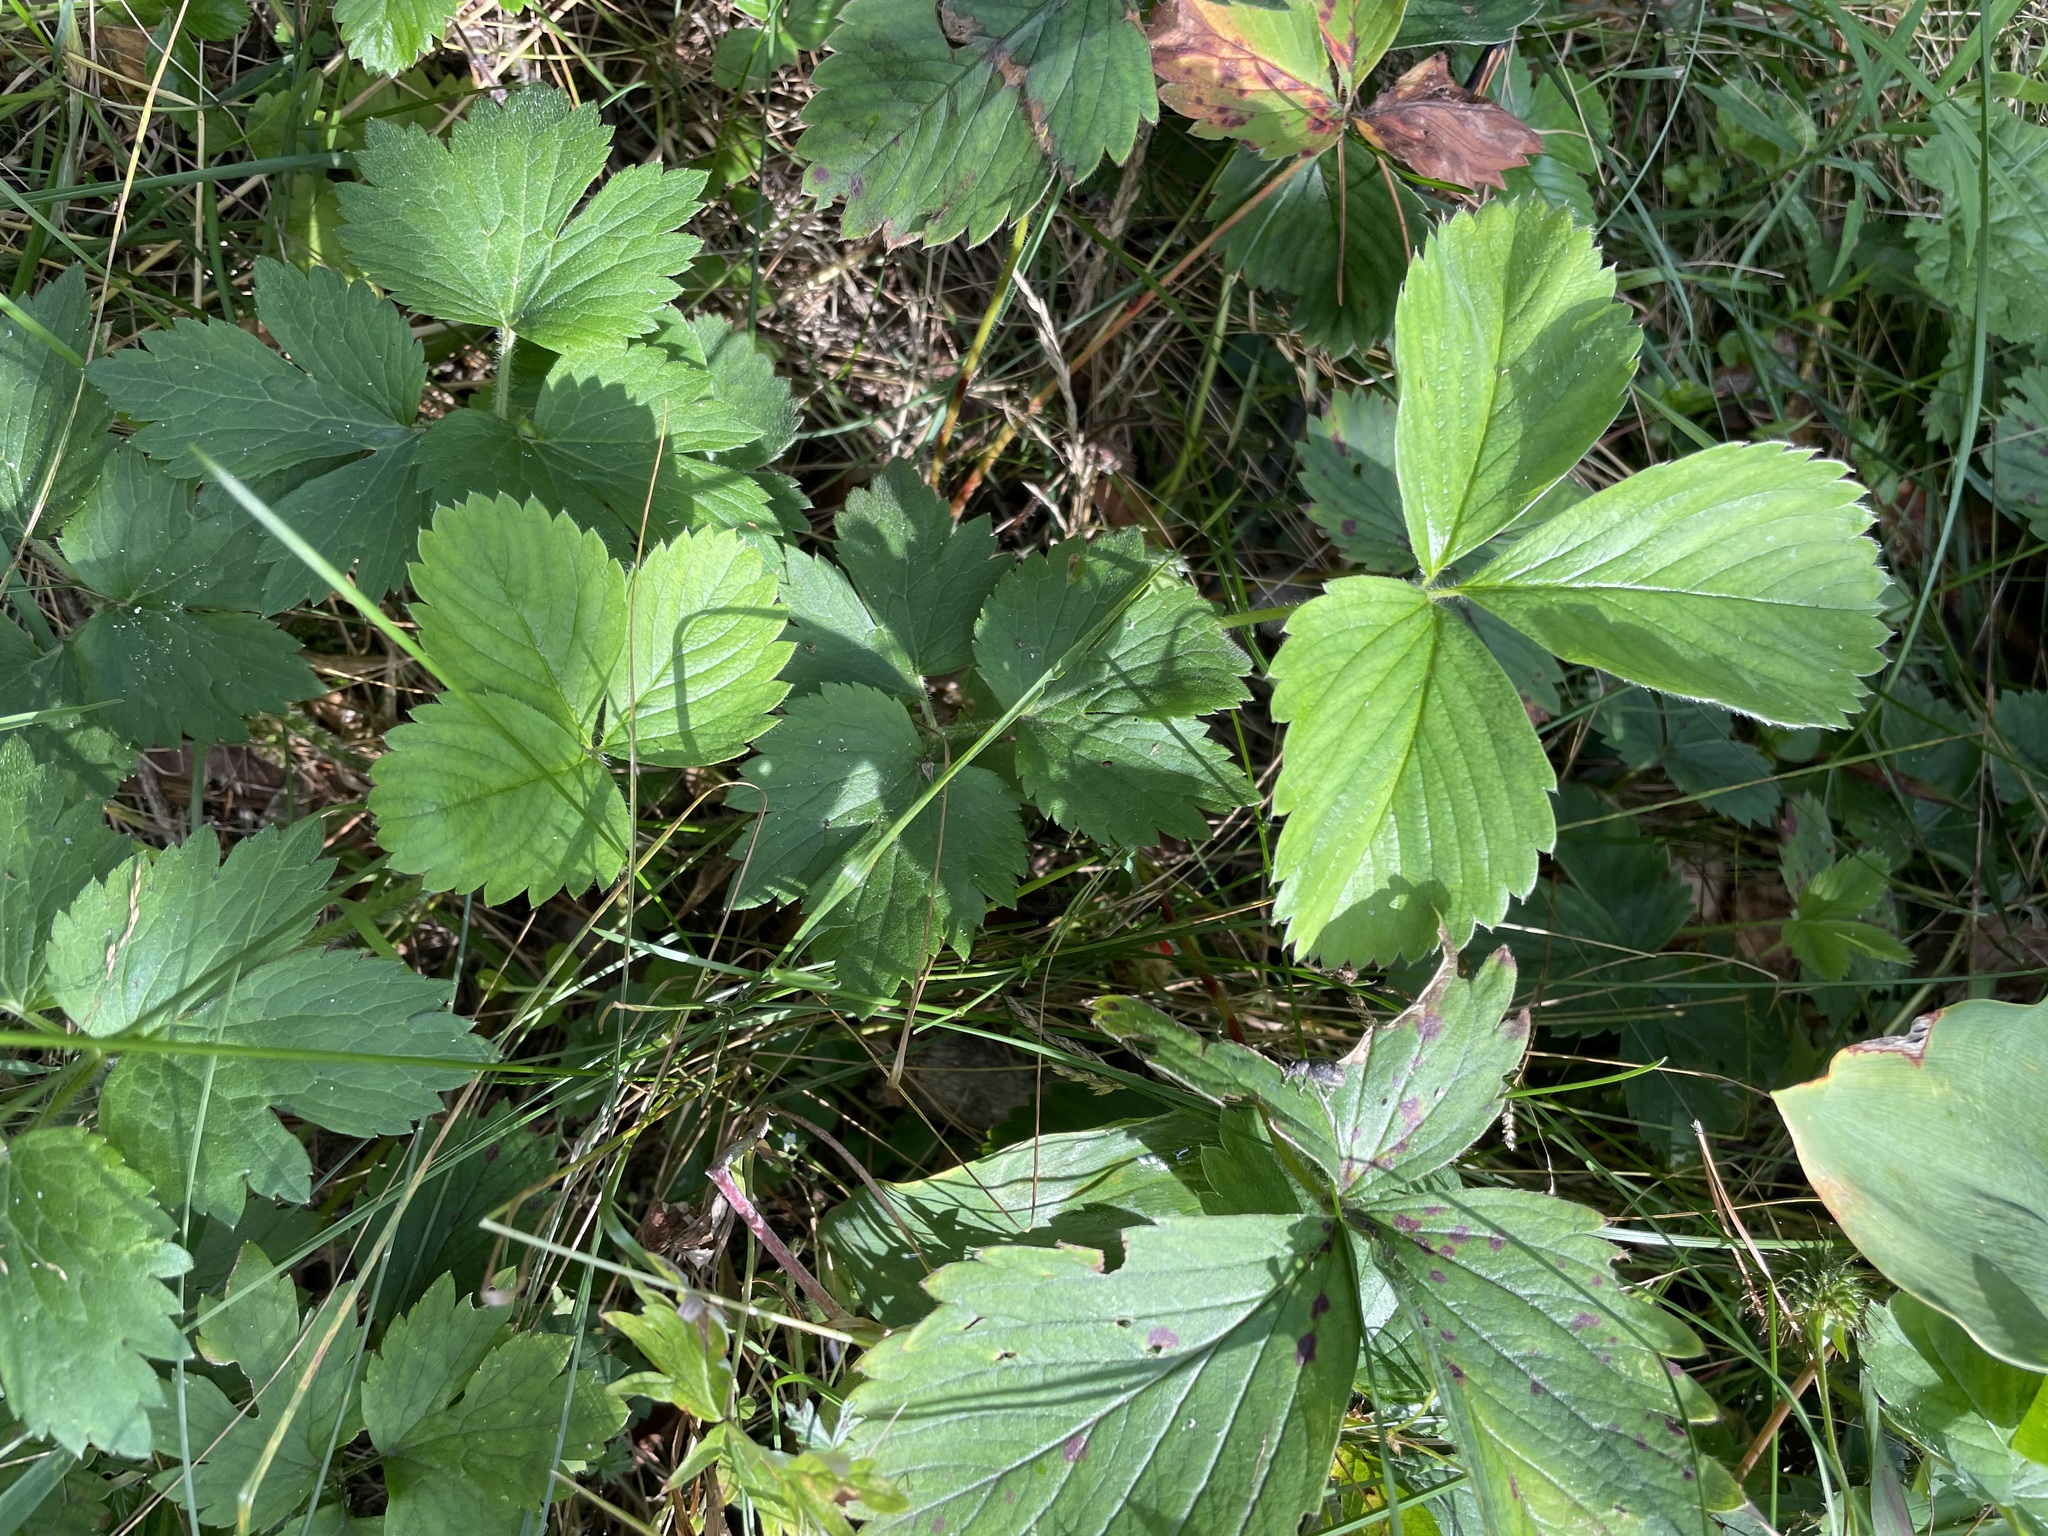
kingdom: Plantae
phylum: Tracheophyta
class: Magnoliopsida
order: Rosales
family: Rosaceae
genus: Fragaria
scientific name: Fragaria ananassa
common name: Garden strawberry
